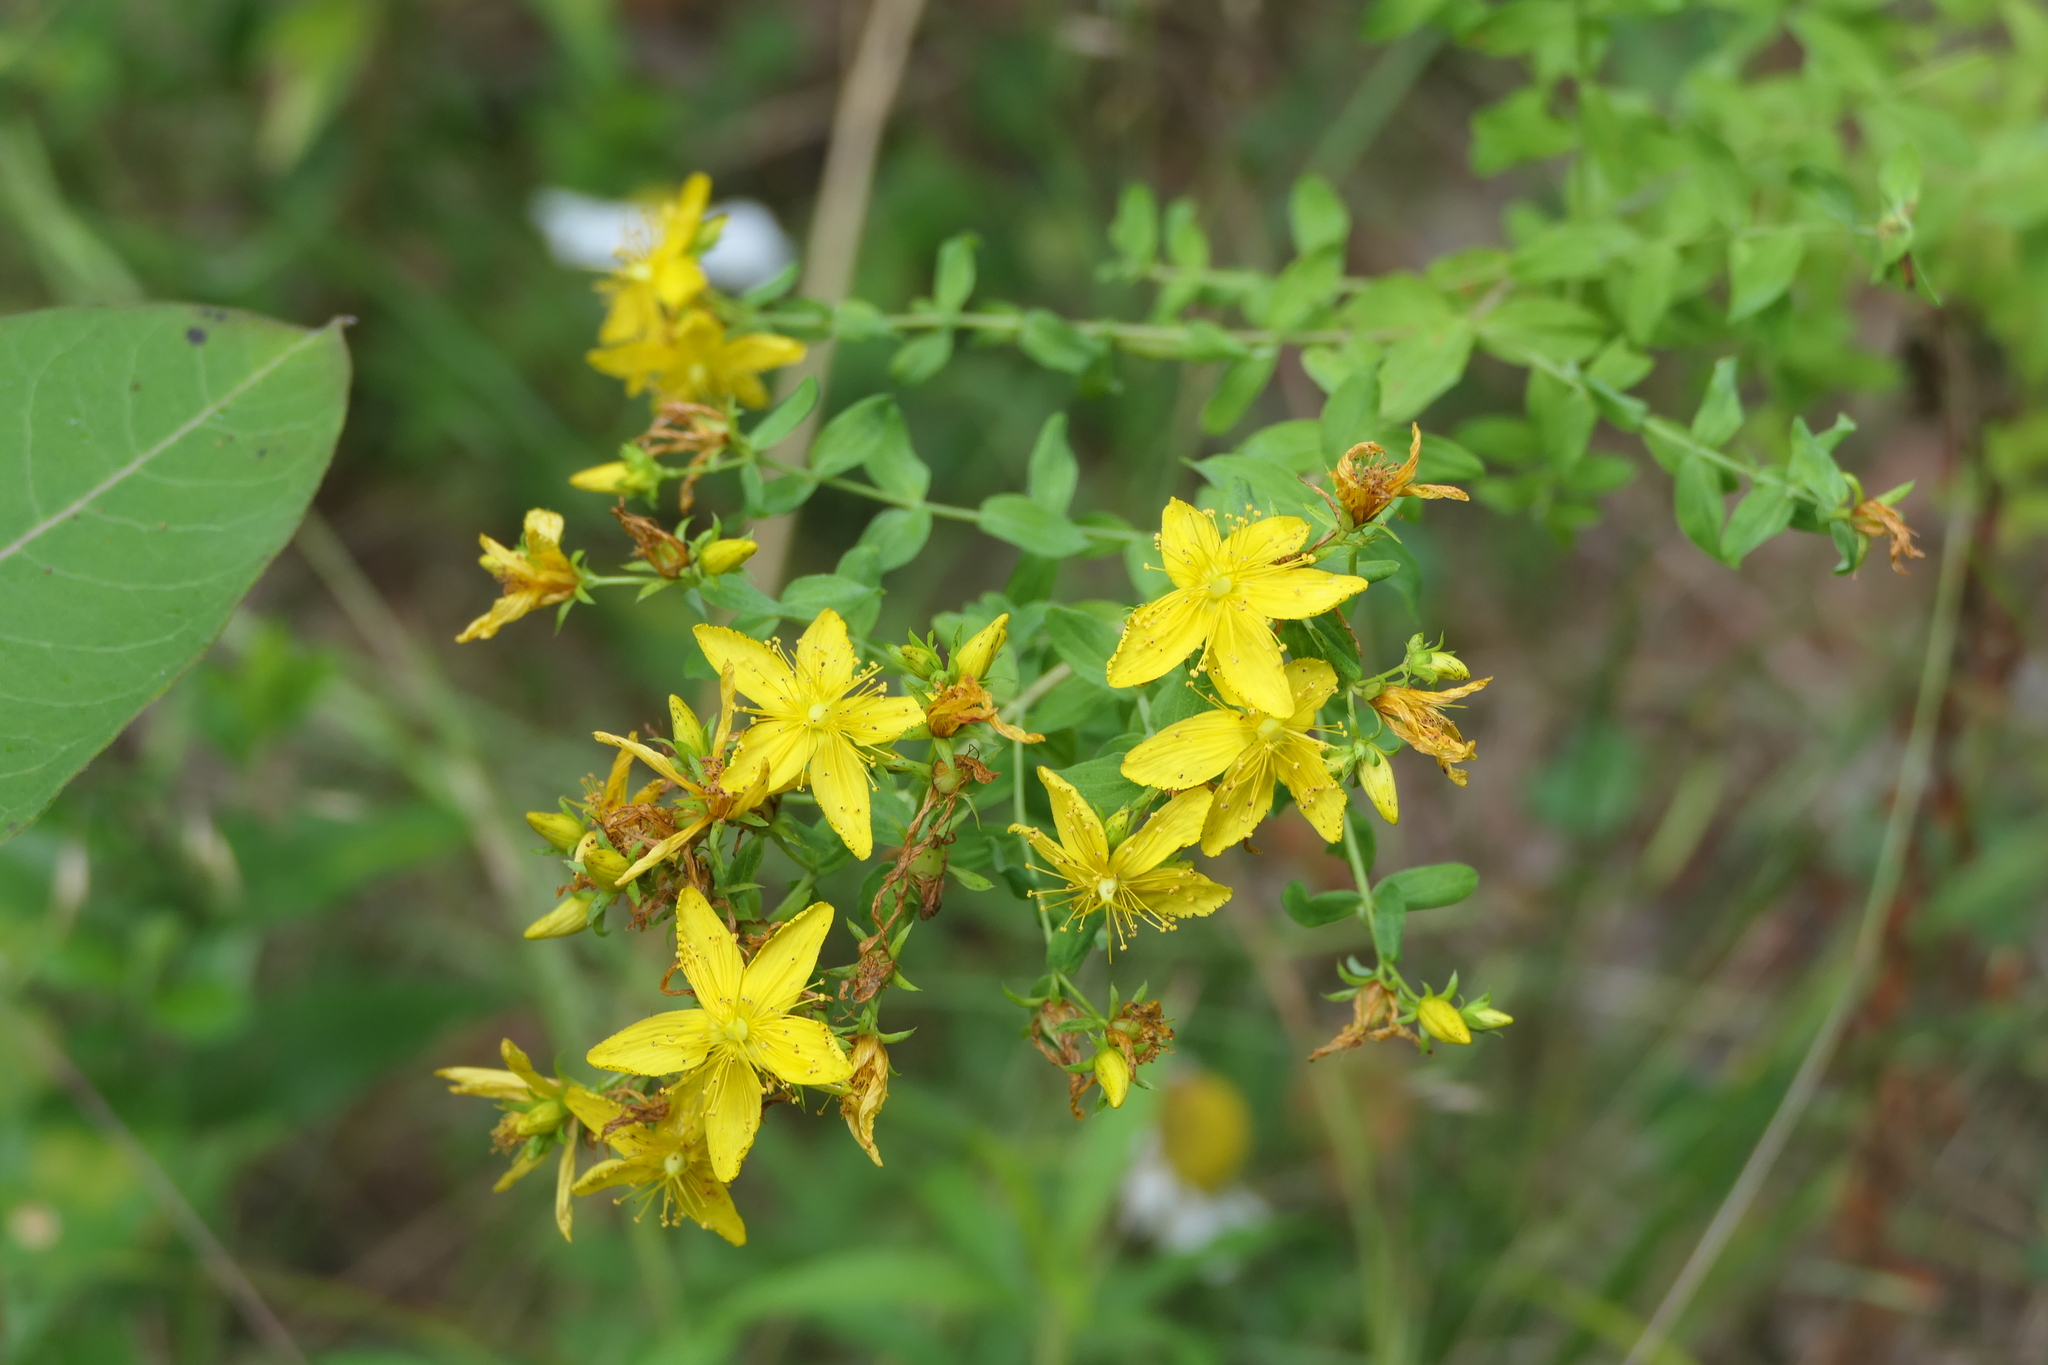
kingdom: Plantae
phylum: Tracheophyta
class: Magnoliopsida
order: Malpighiales
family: Hypericaceae
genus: Hypericum
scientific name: Hypericum perforatum
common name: Common st. johnswort
